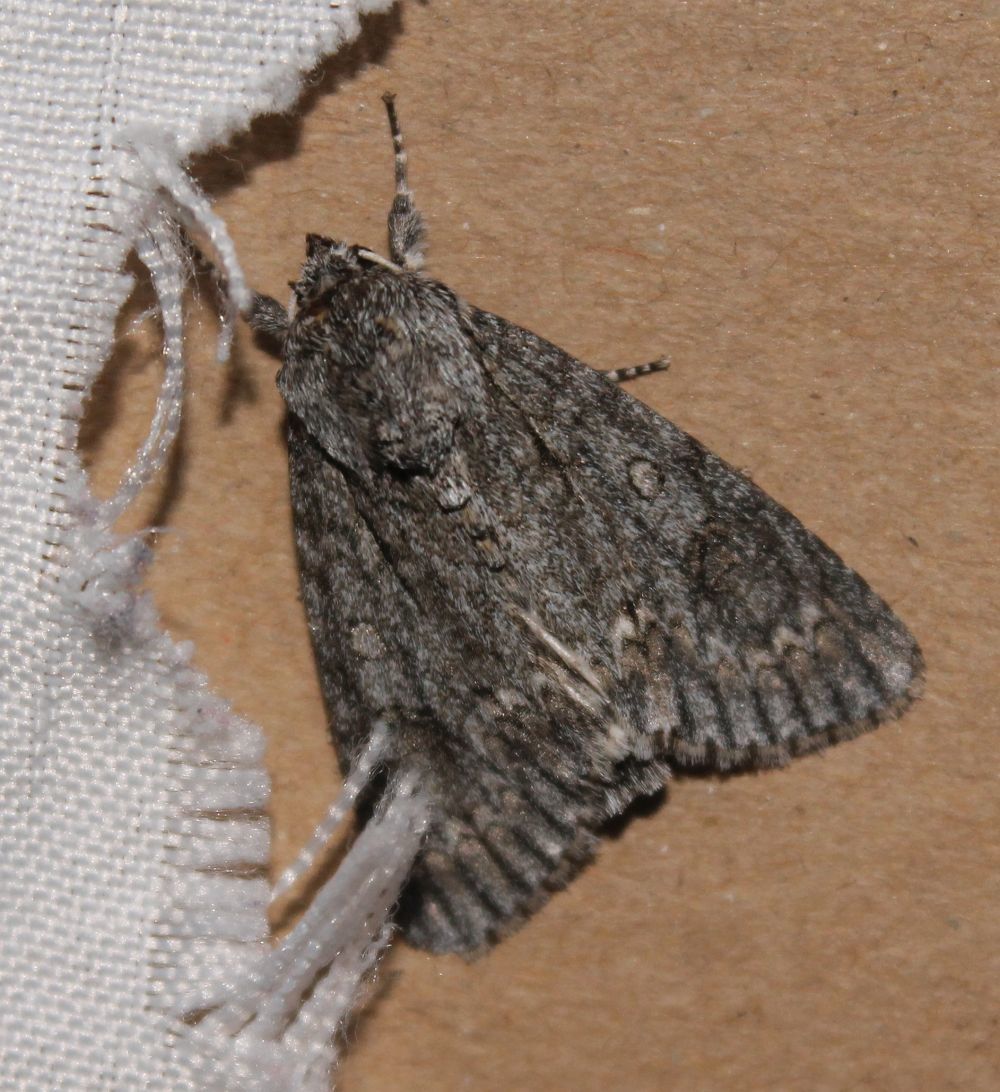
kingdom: Animalia
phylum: Arthropoda
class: Insecta
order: Lepidoptera
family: Noctuidae
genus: Acronicta
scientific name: Acronicta aceris
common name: Sycamore
